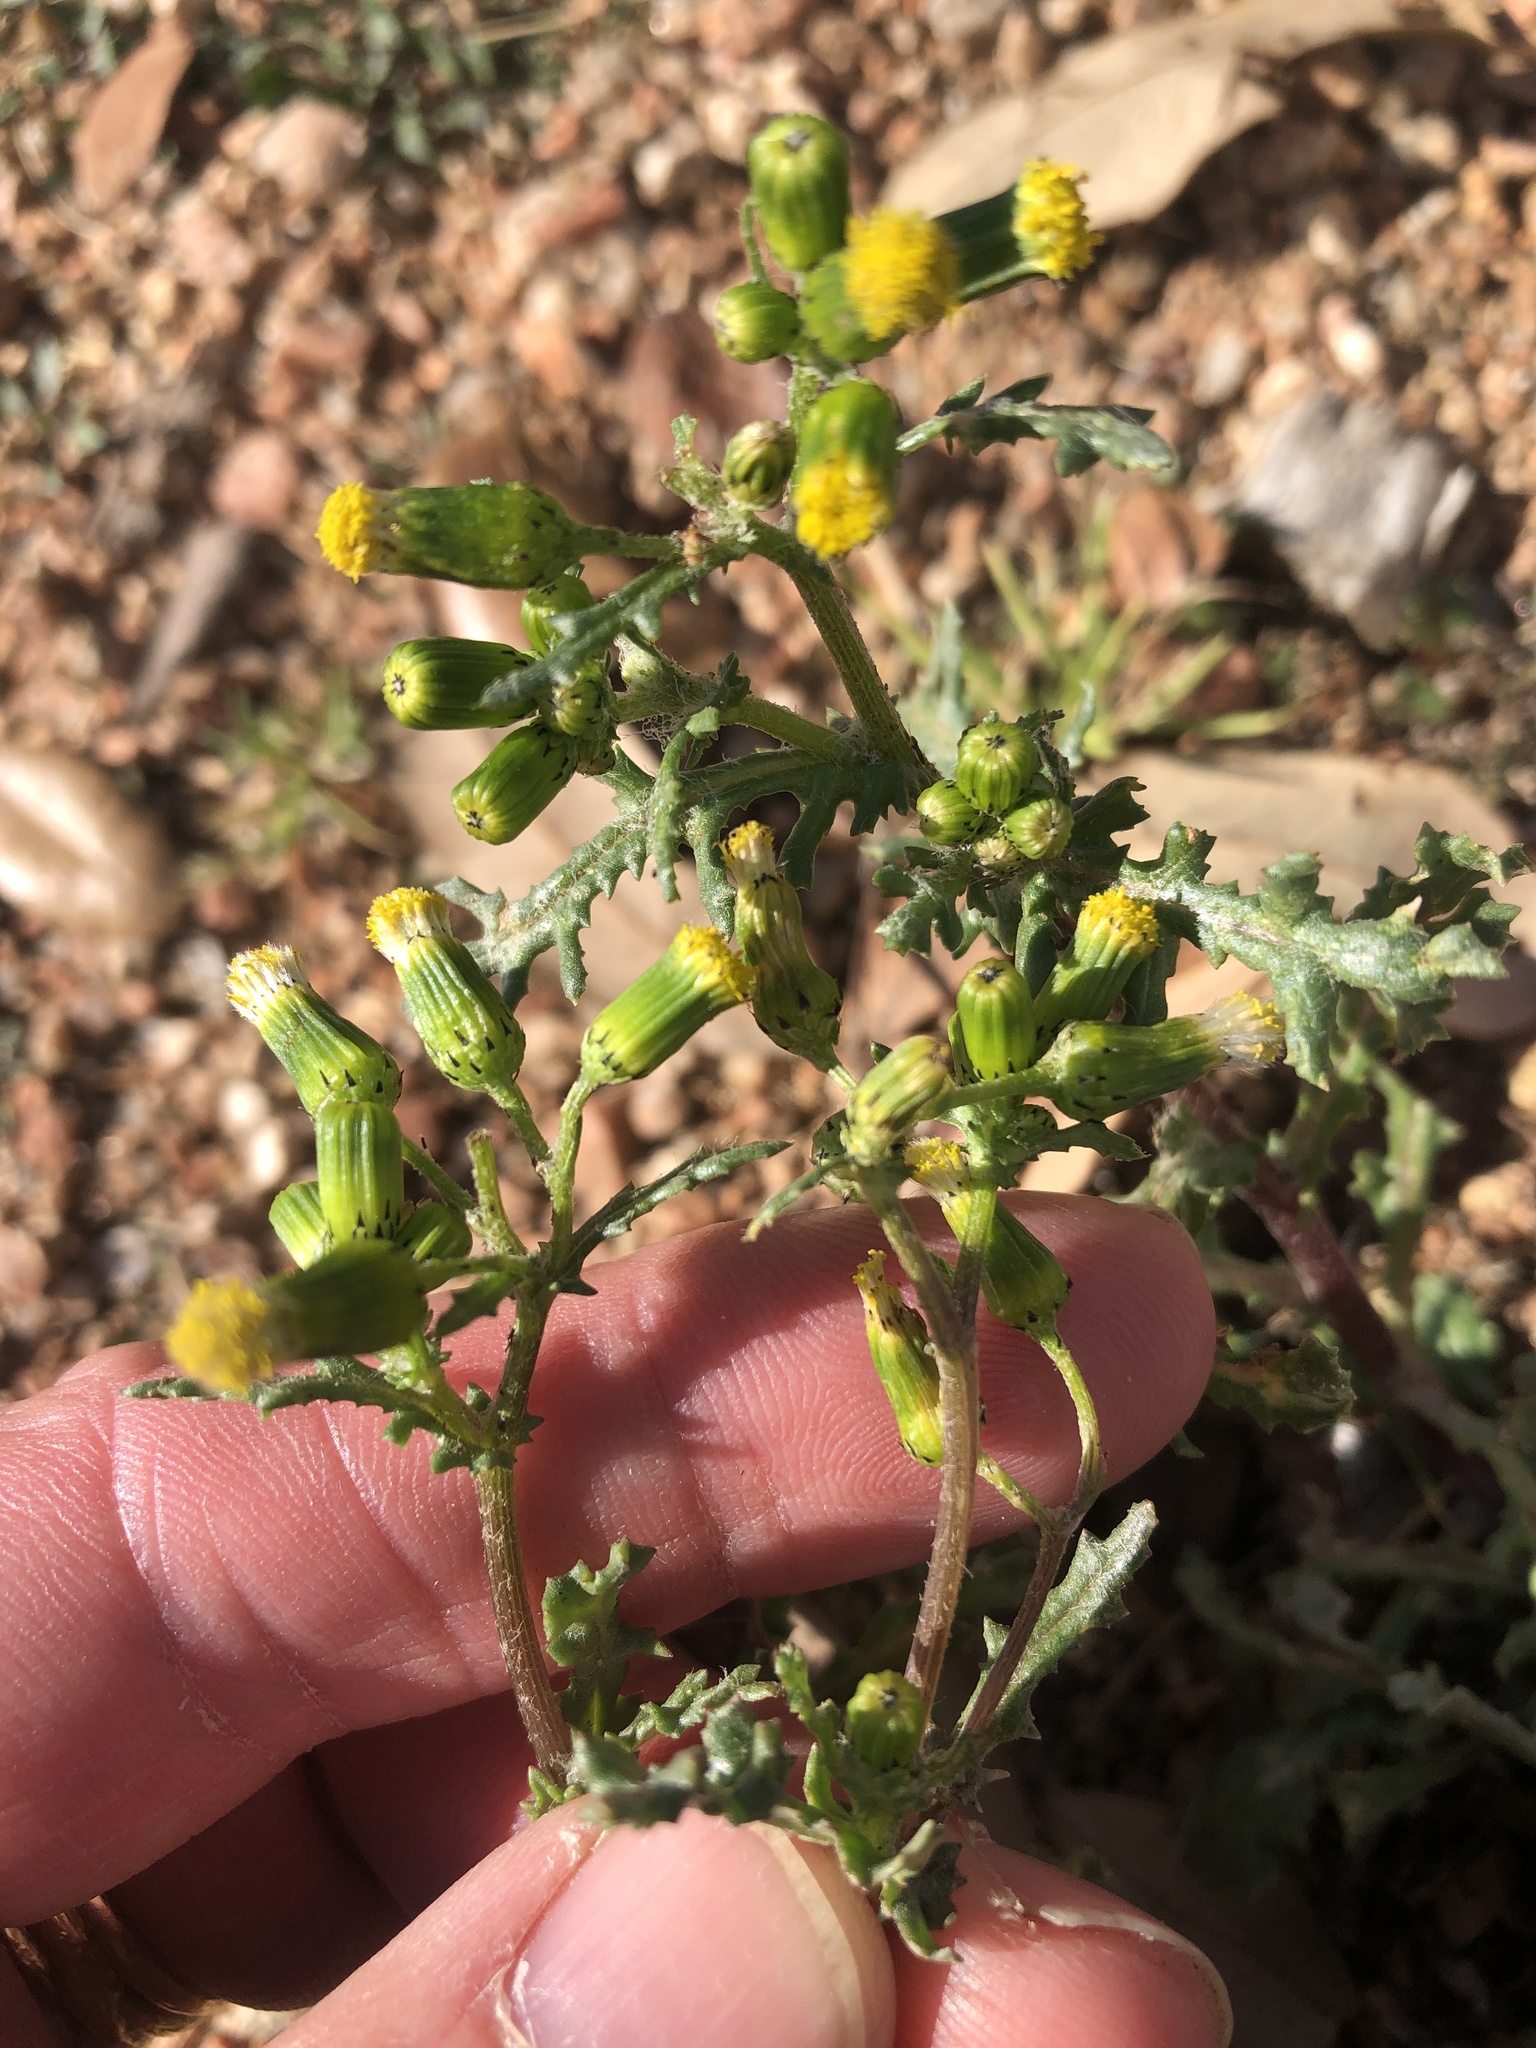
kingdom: Plantae
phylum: Tracheophyta
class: Magnoliopsida
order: Asterales
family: Asteraceae
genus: Senecio
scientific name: Senecio vulgaris
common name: Old-man-in-the-spring
